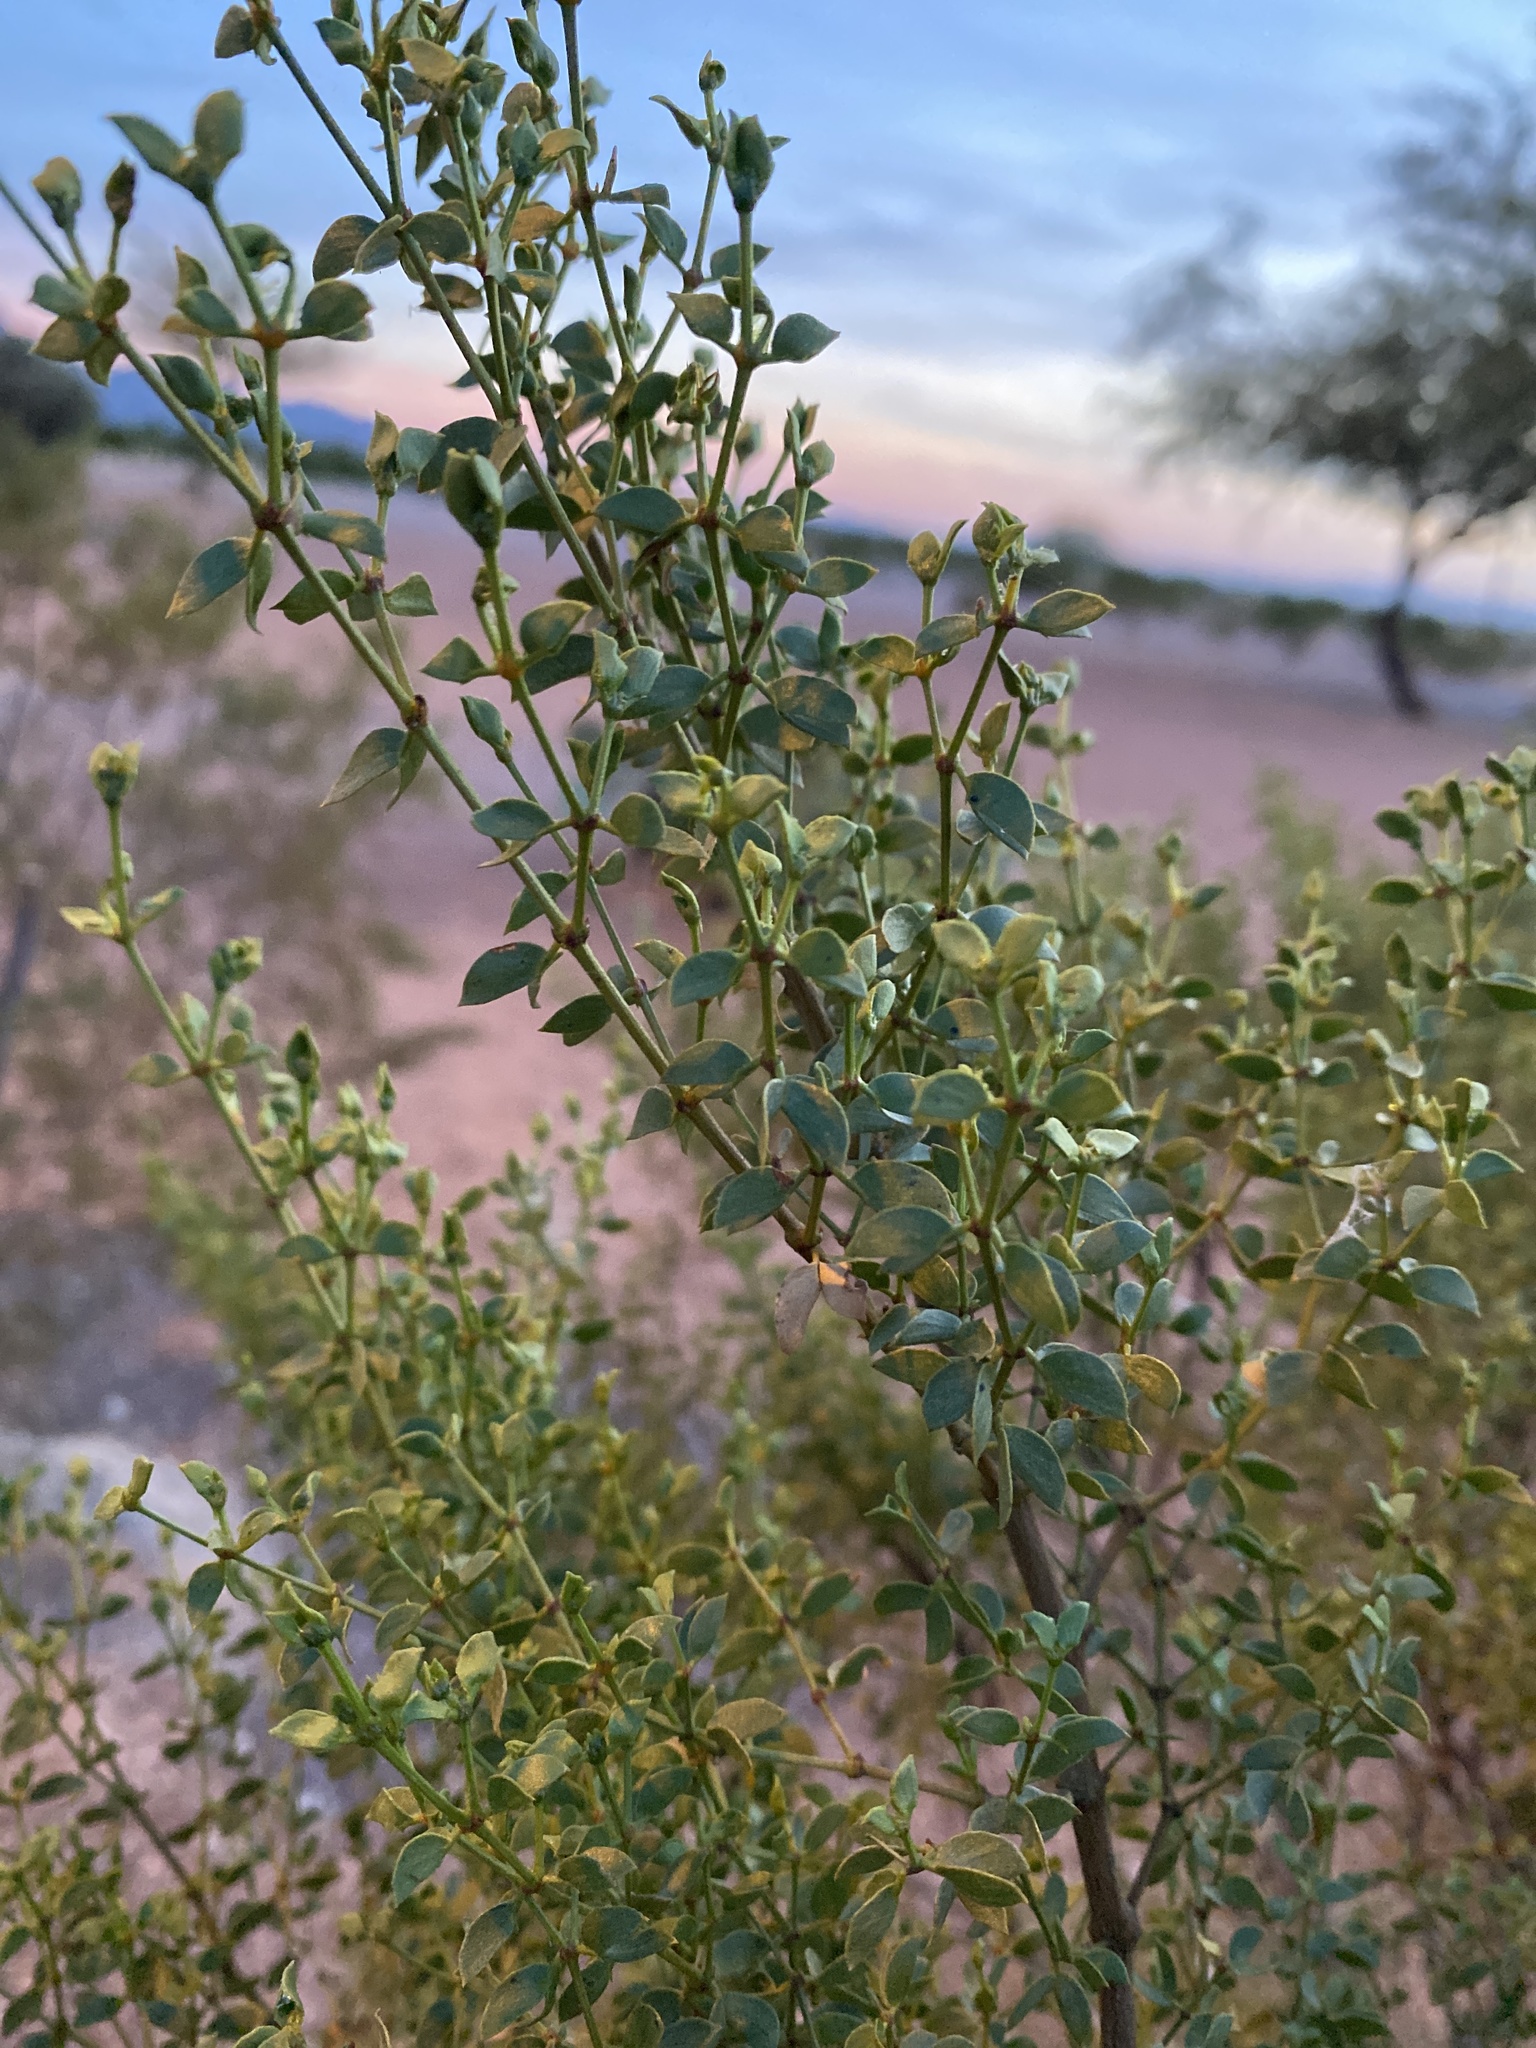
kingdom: Plantae
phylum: Tracheophyta
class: Magnoliopsida
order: Zygophyllales
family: Zygophyllaceae
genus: Larrea
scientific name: Larrea tridentata
